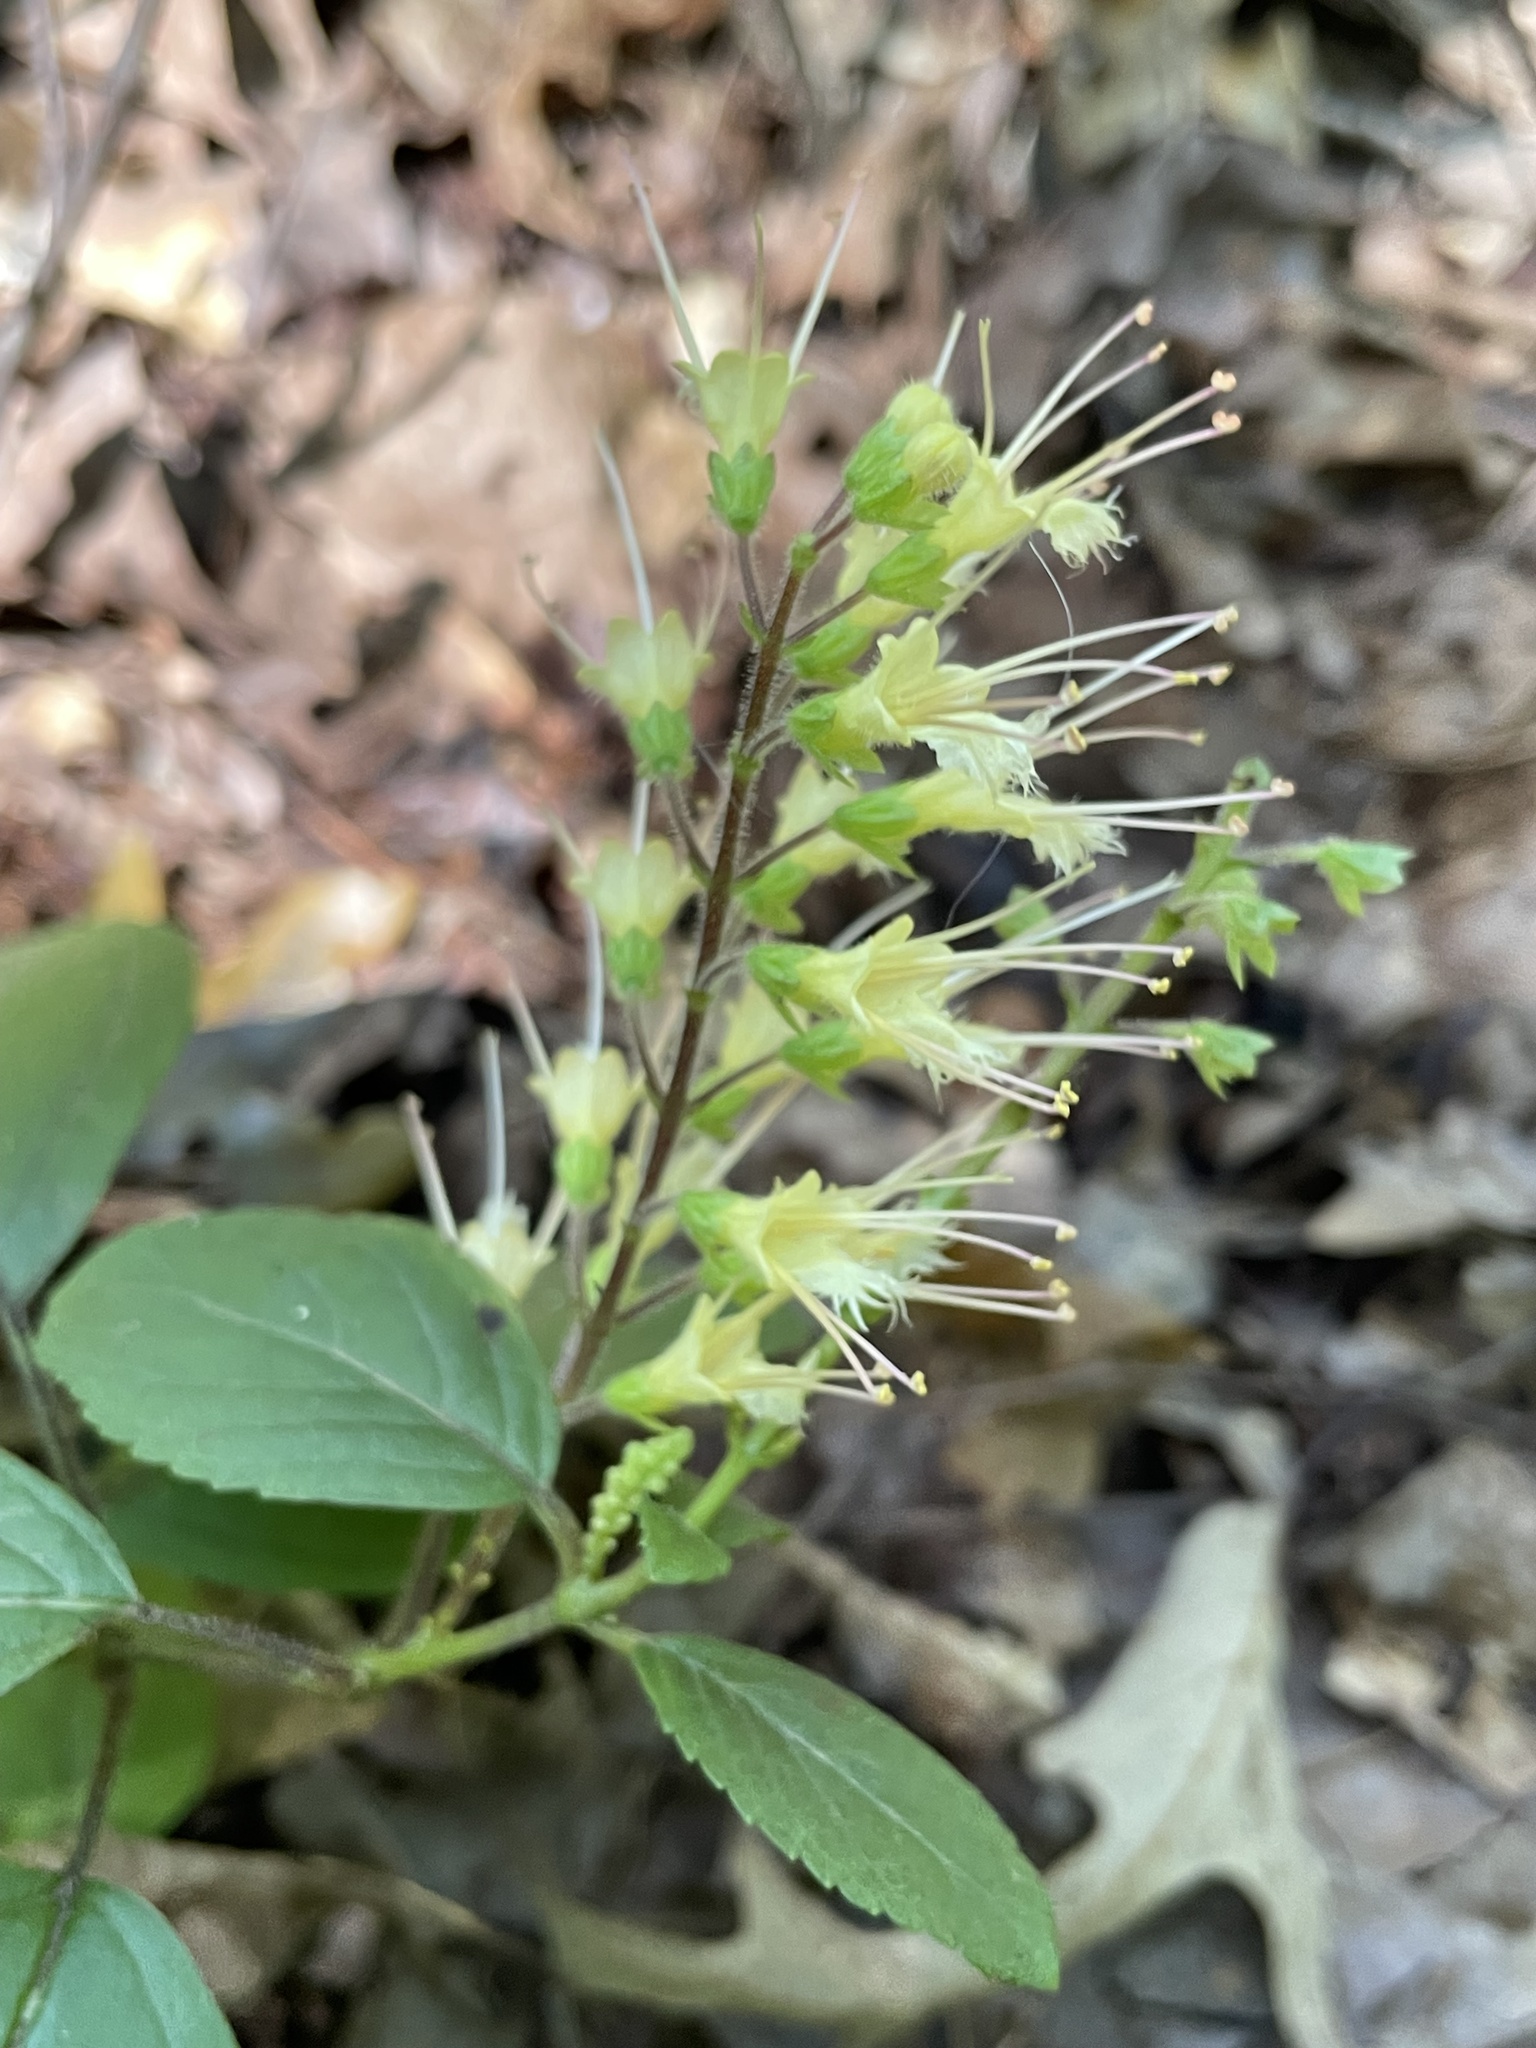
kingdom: Plantae
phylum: Tracheophyta
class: Magnoliopsida
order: Lamiales
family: Lamiaceae
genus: Collinsonia
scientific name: Collinsonia canadensis
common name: Northern horsebalm
